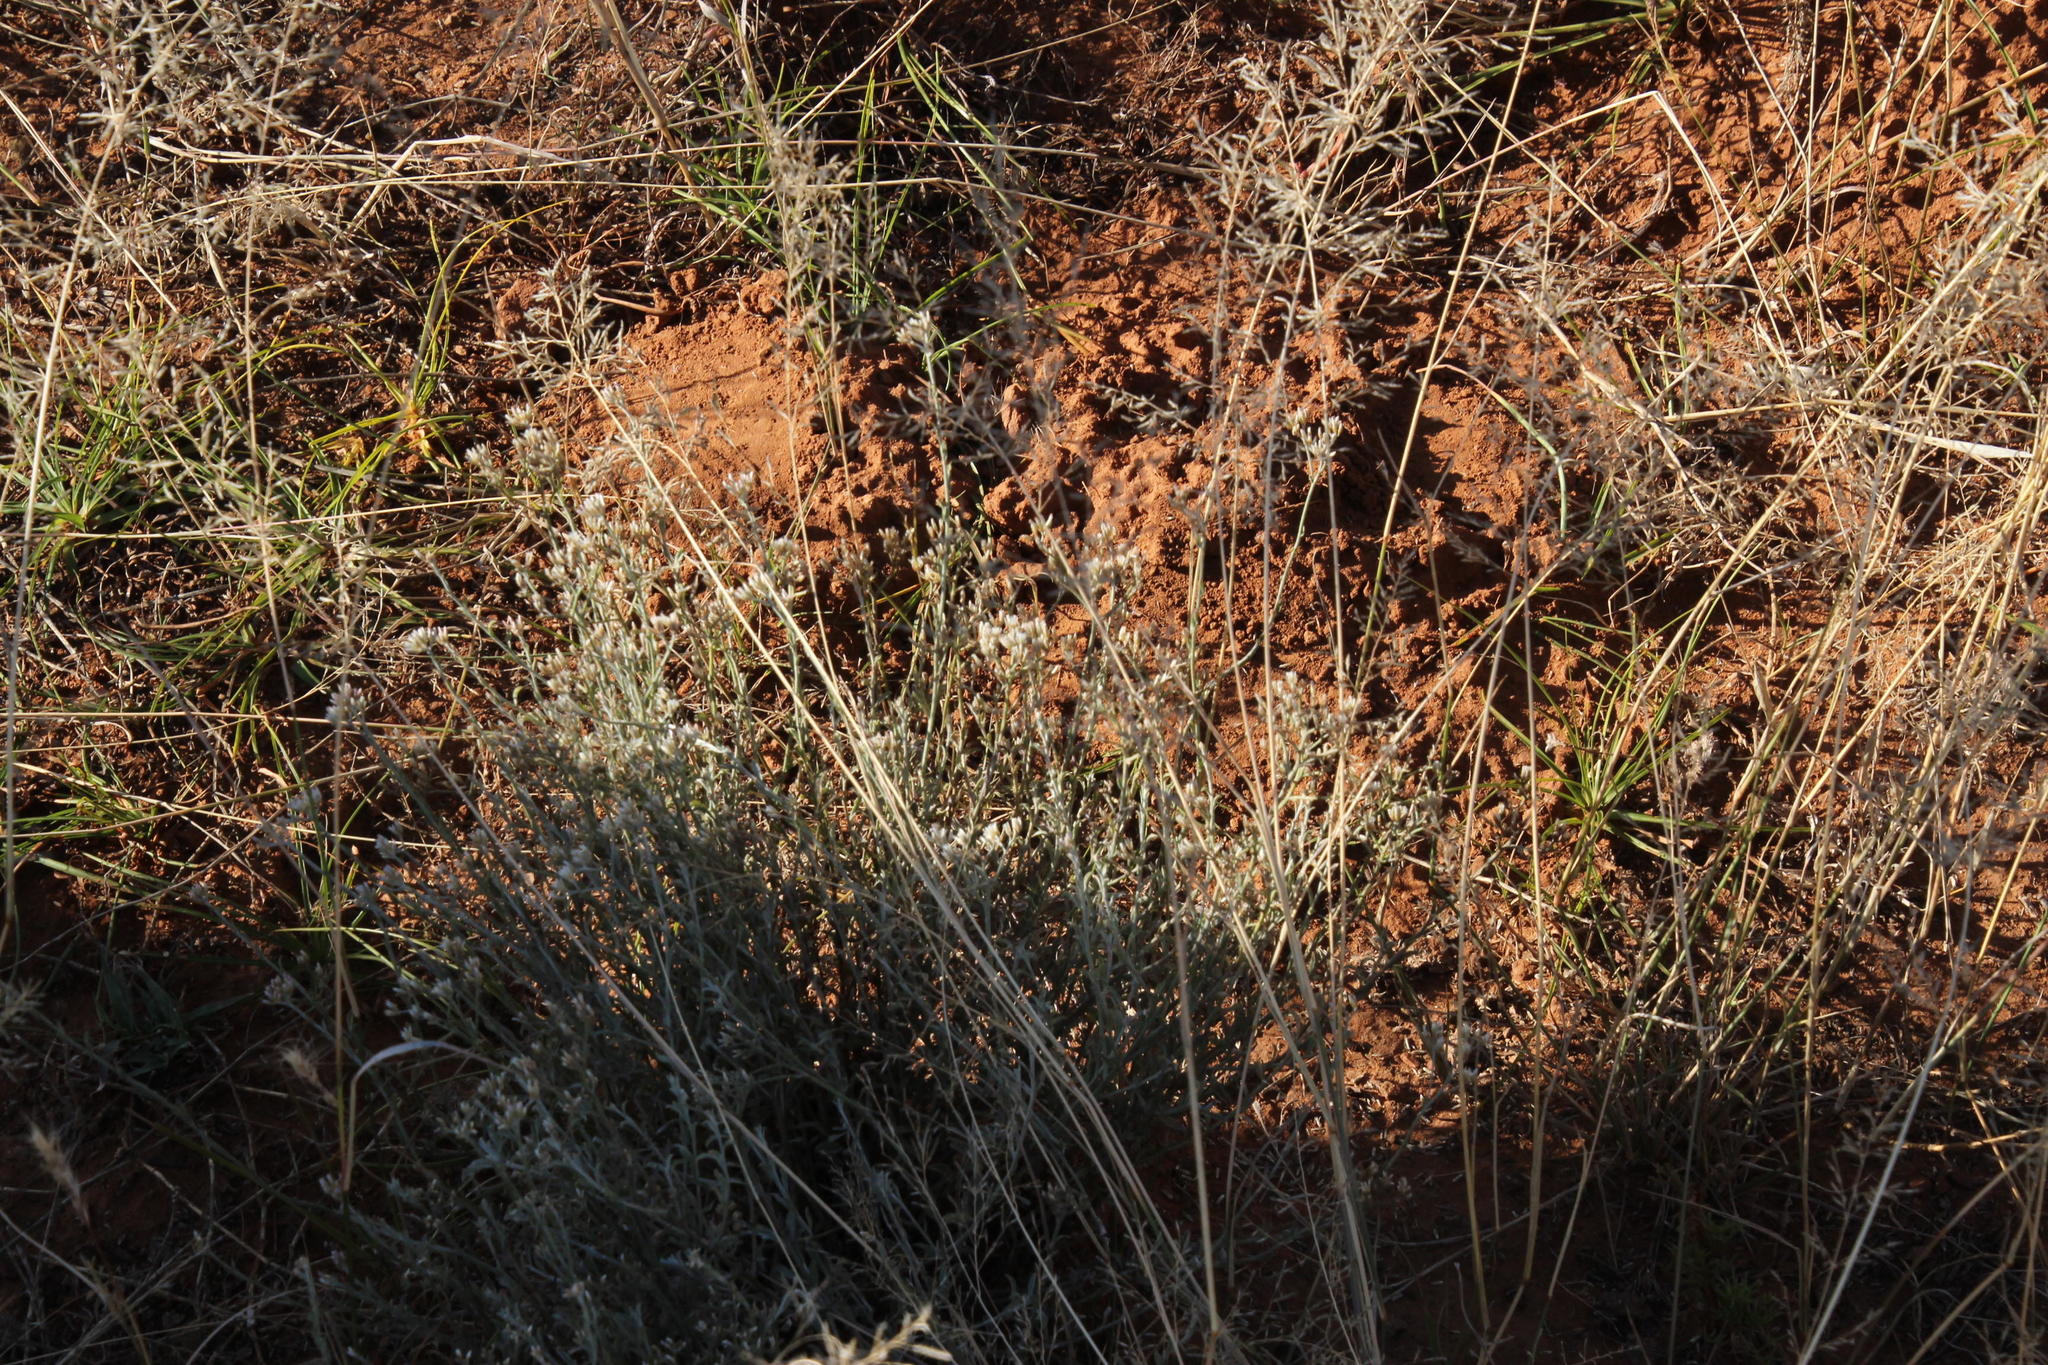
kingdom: Plantae
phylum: Tracheophyta
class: Magnoliopsida
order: Asterales
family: Asteraceae
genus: Helichrysum
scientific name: Helichrysum zeyheri
